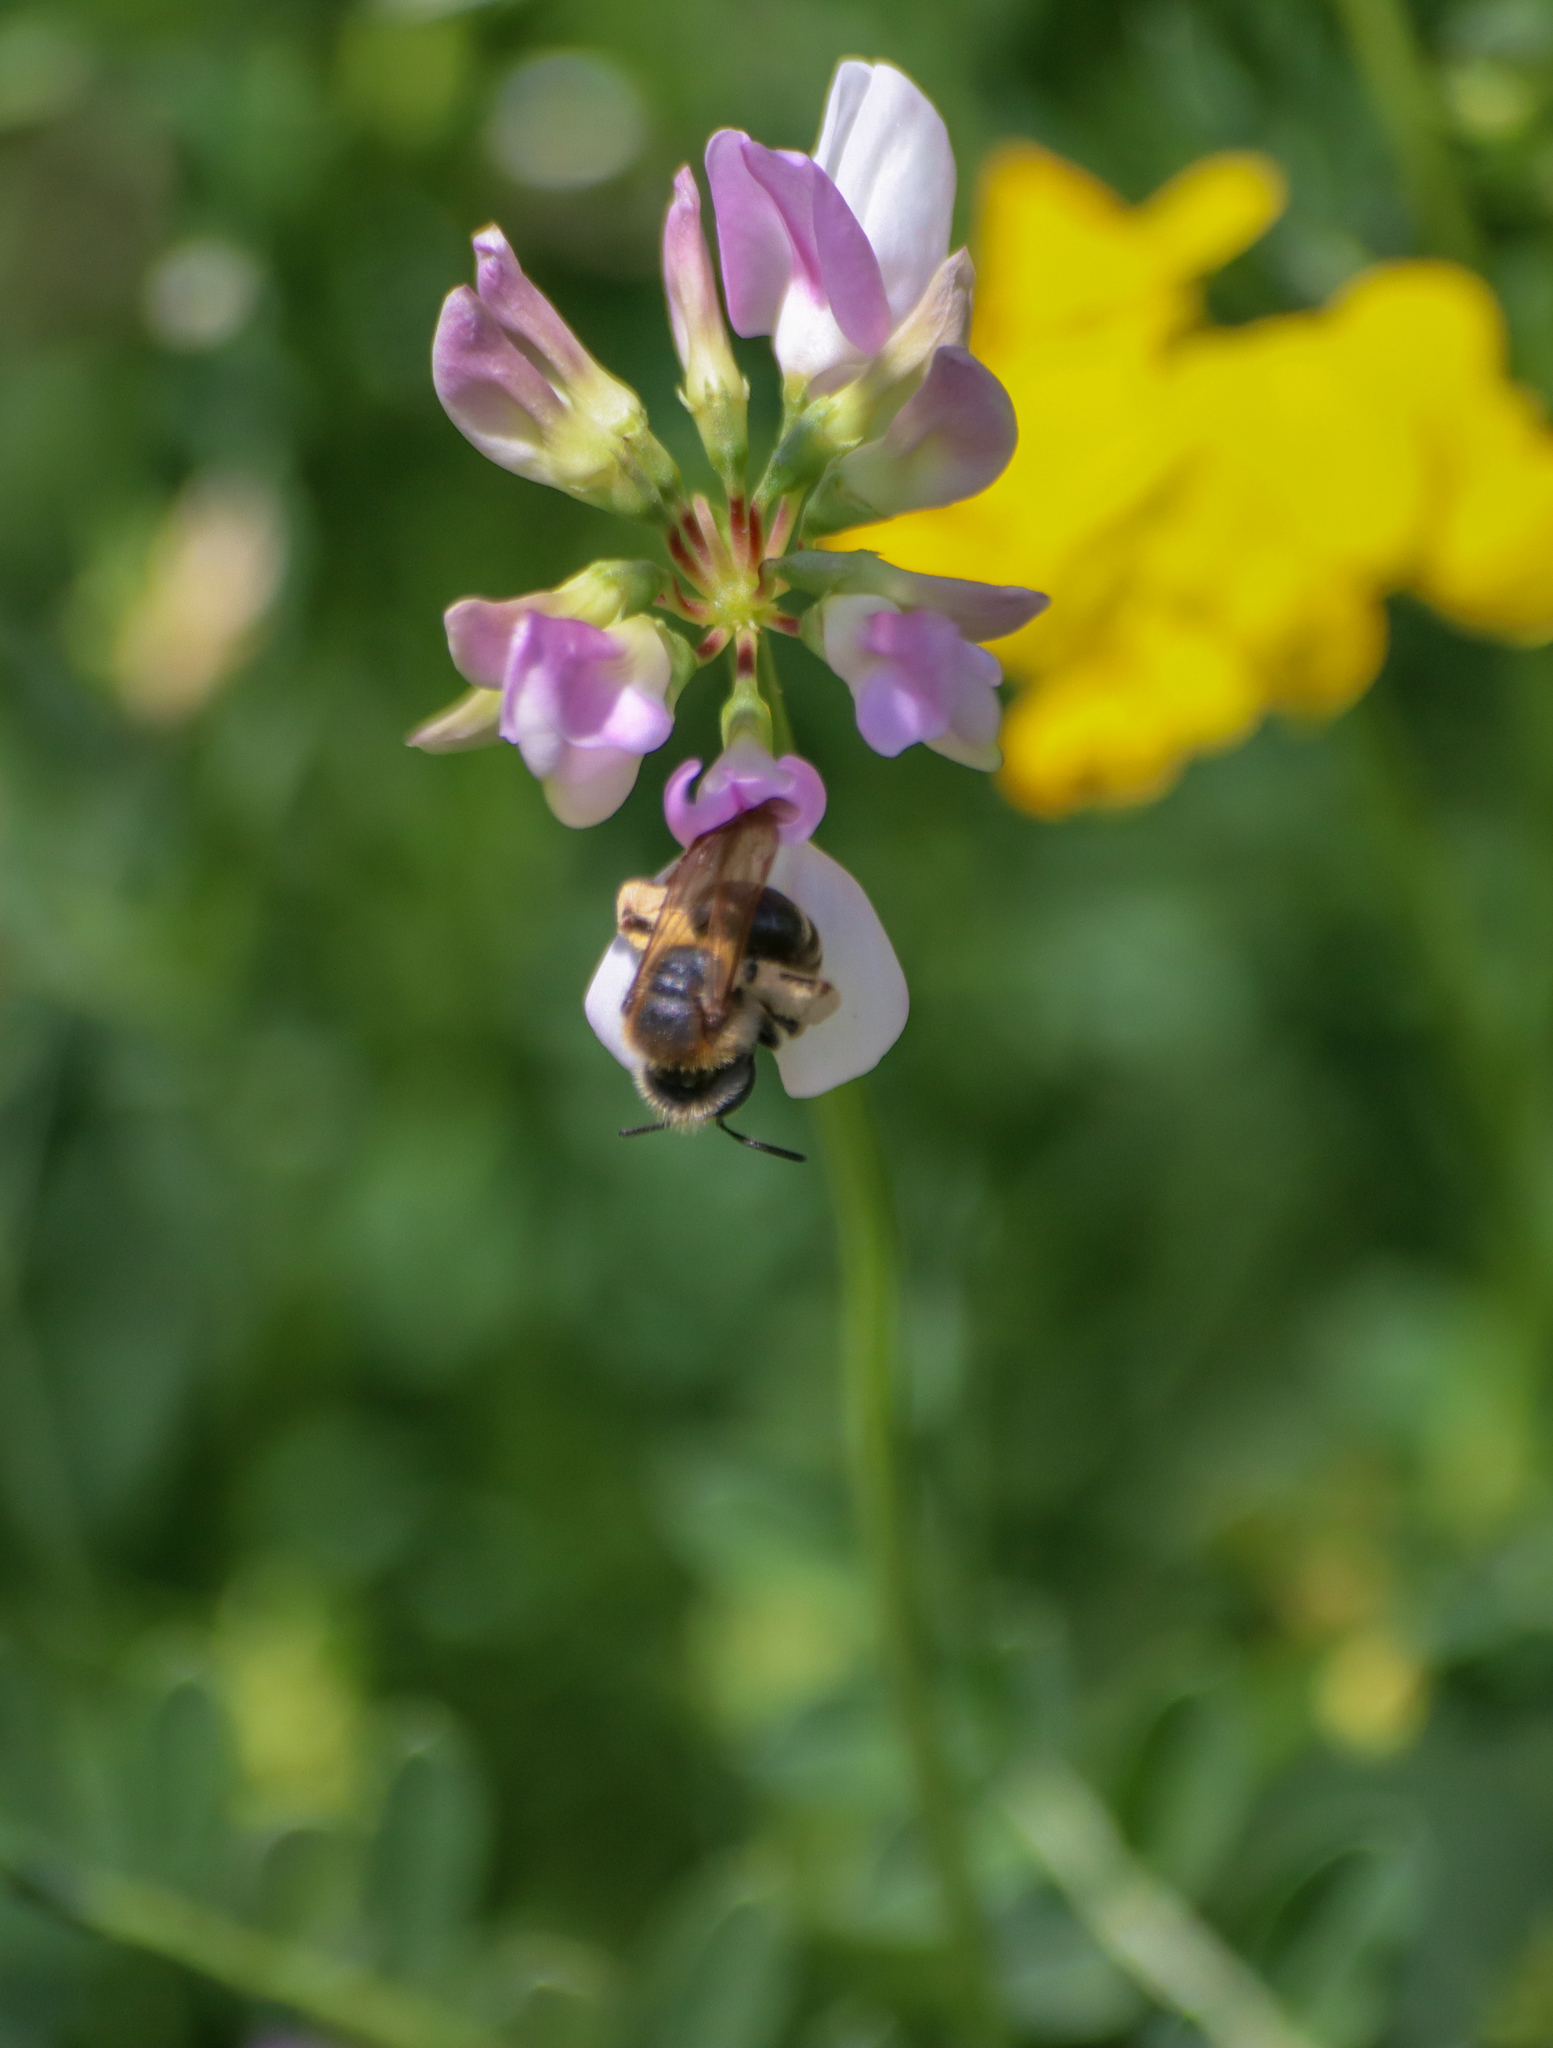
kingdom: Animalia
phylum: Arthropoda
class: Insecta
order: Hymenoptera
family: Andrenidae
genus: Andrena
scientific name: Andrena wilkella
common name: Wilke's mining bee
